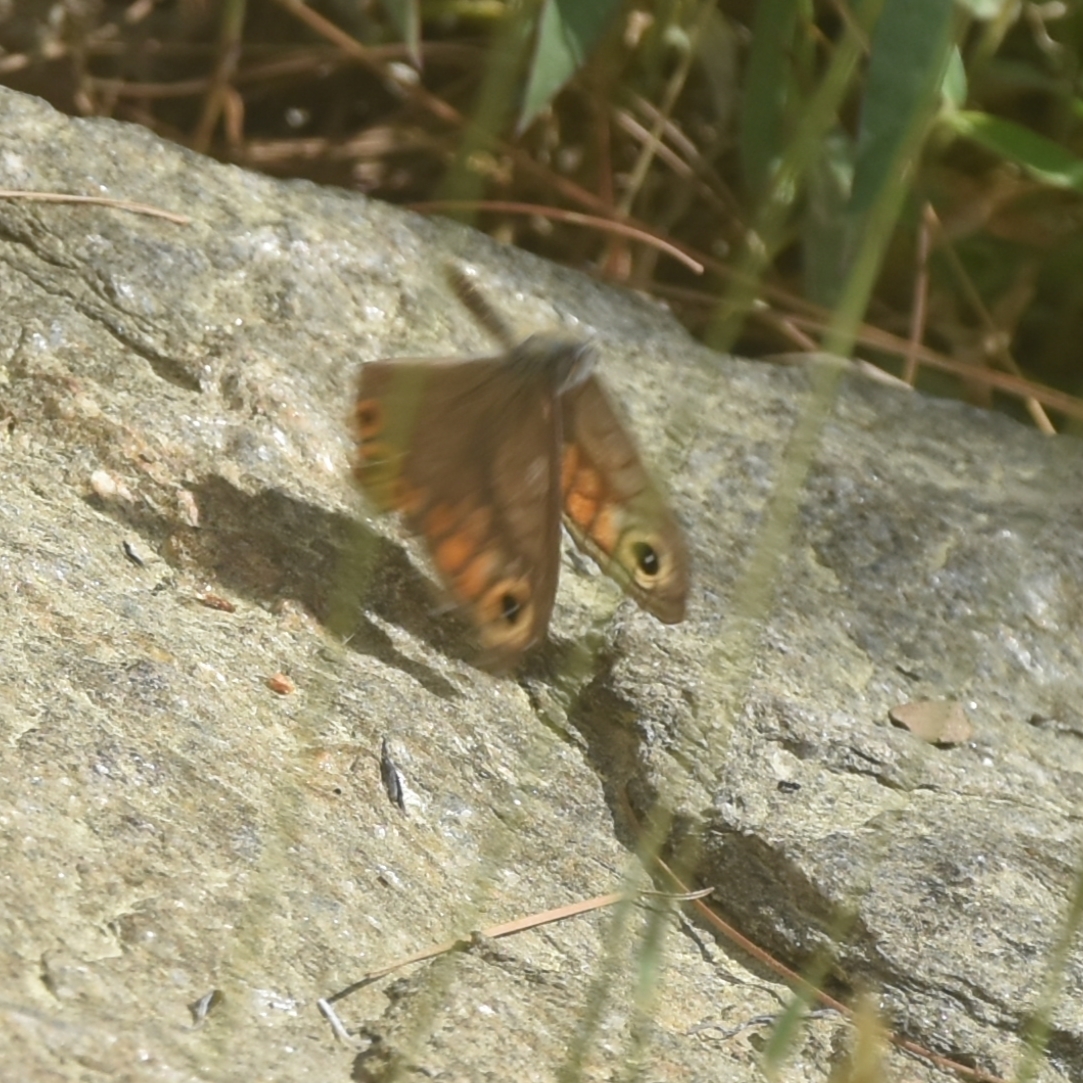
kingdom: Animalia
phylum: Arthropoda
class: Insecta
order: Lepidoptera
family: Nymphalidae
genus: Pararge
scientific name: Pararge Lasiommata schakra
